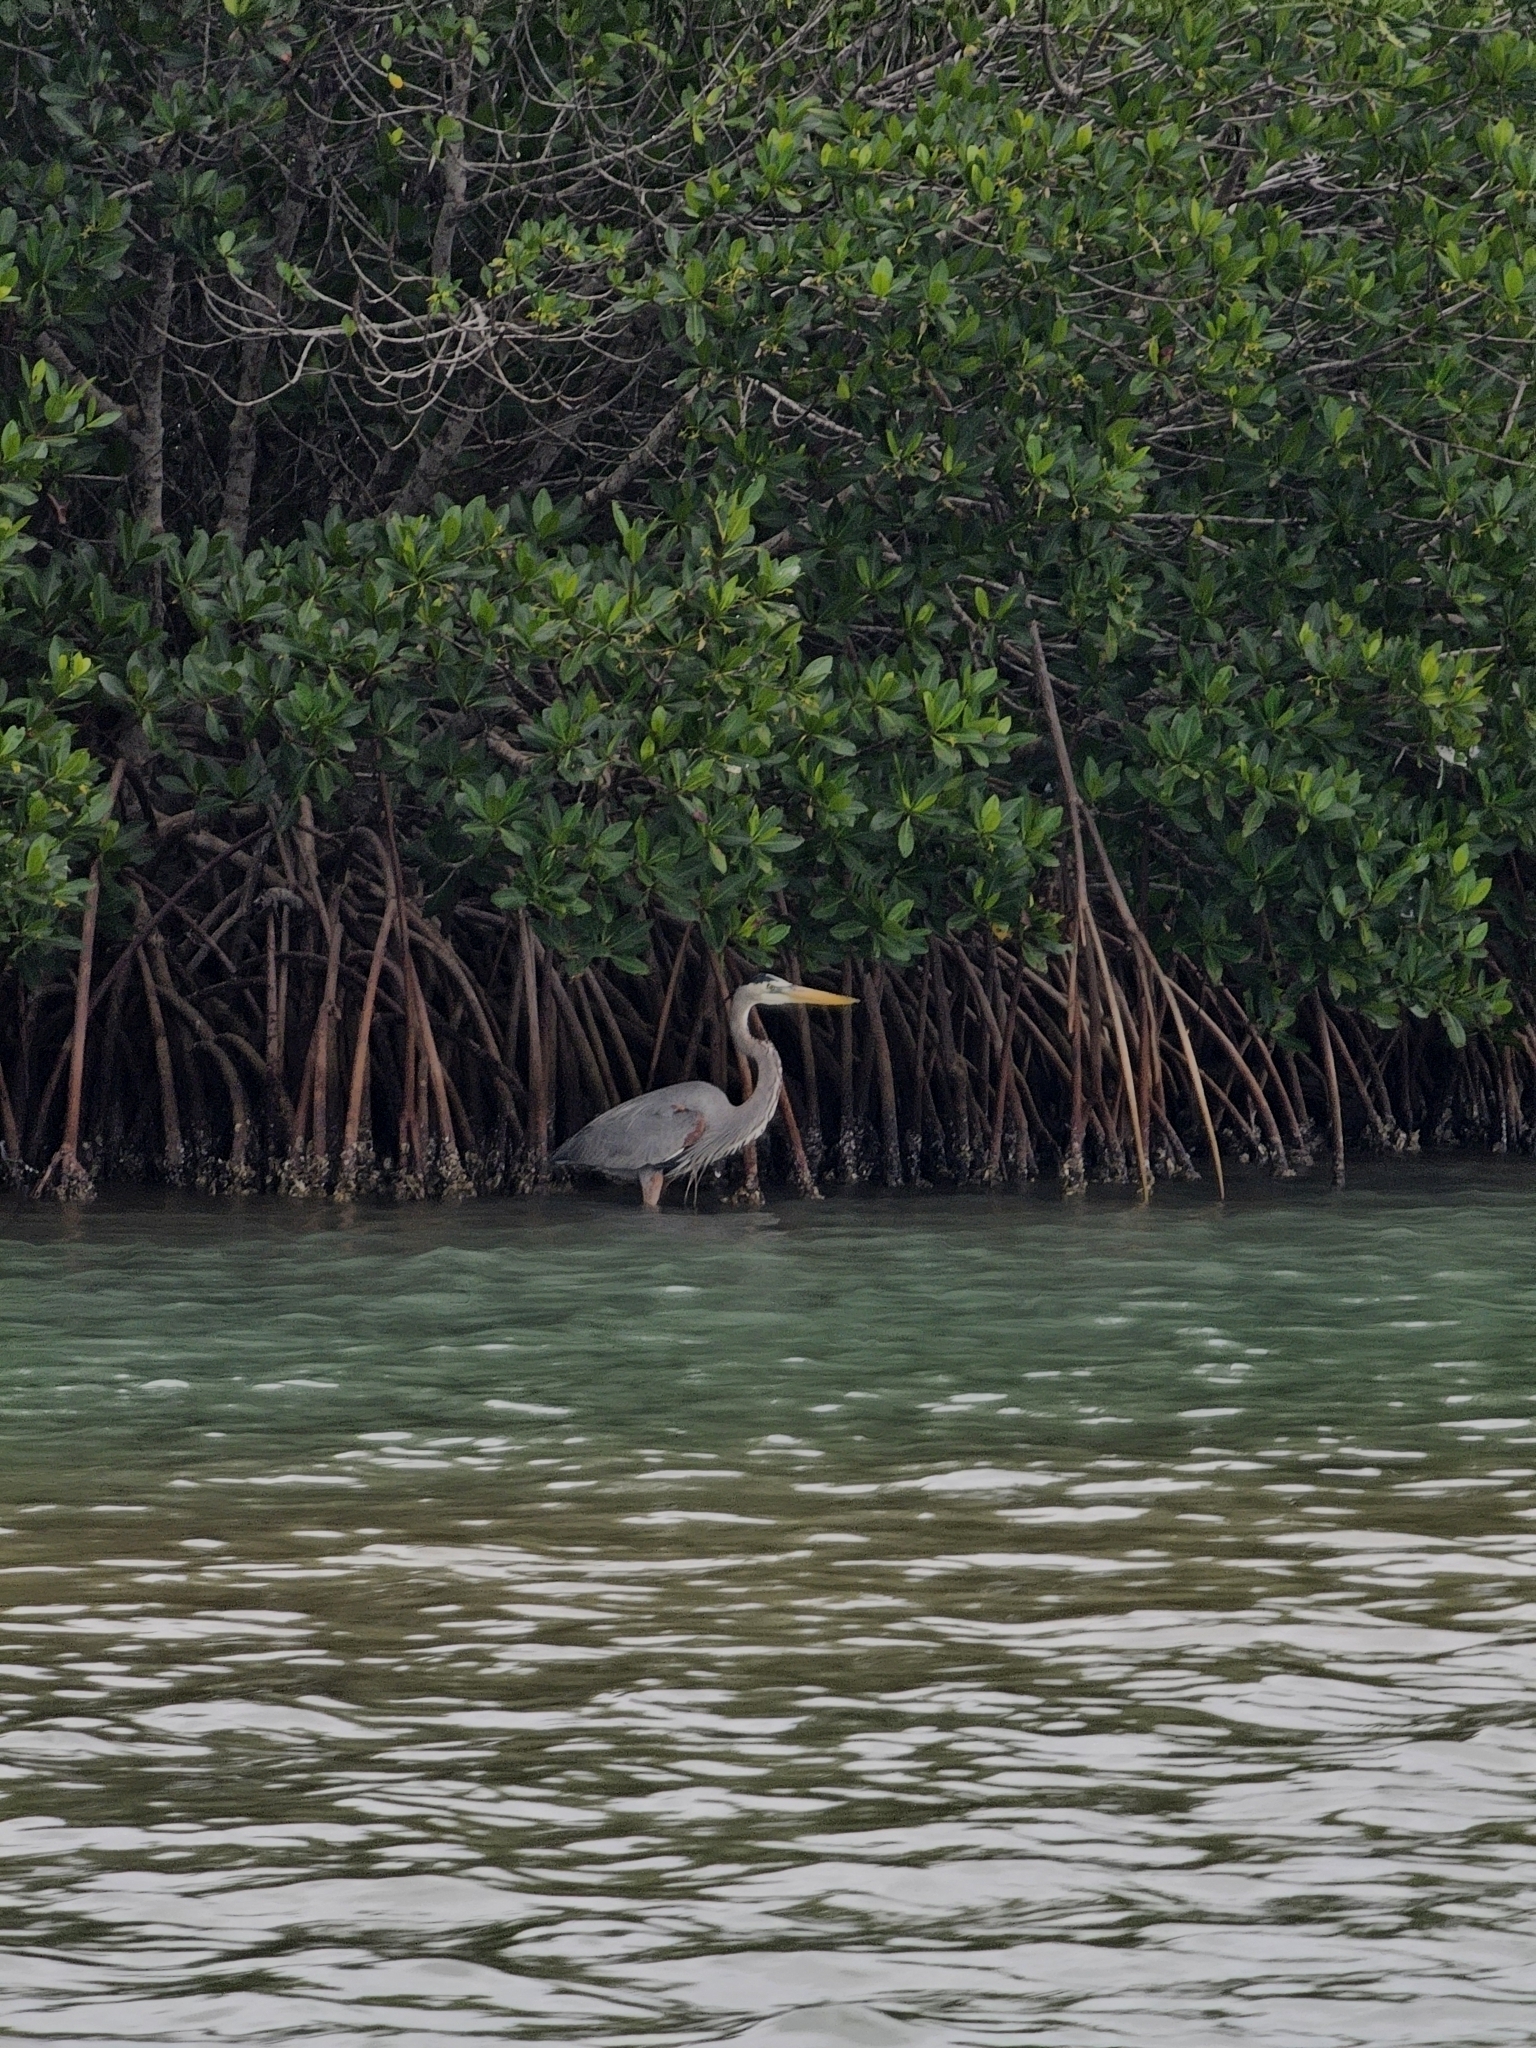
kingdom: Animalia
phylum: Chordata
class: Aves
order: Pelecaniformes
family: Ardeidae
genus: Ardea
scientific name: Ardea herodias
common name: Great blue heron
